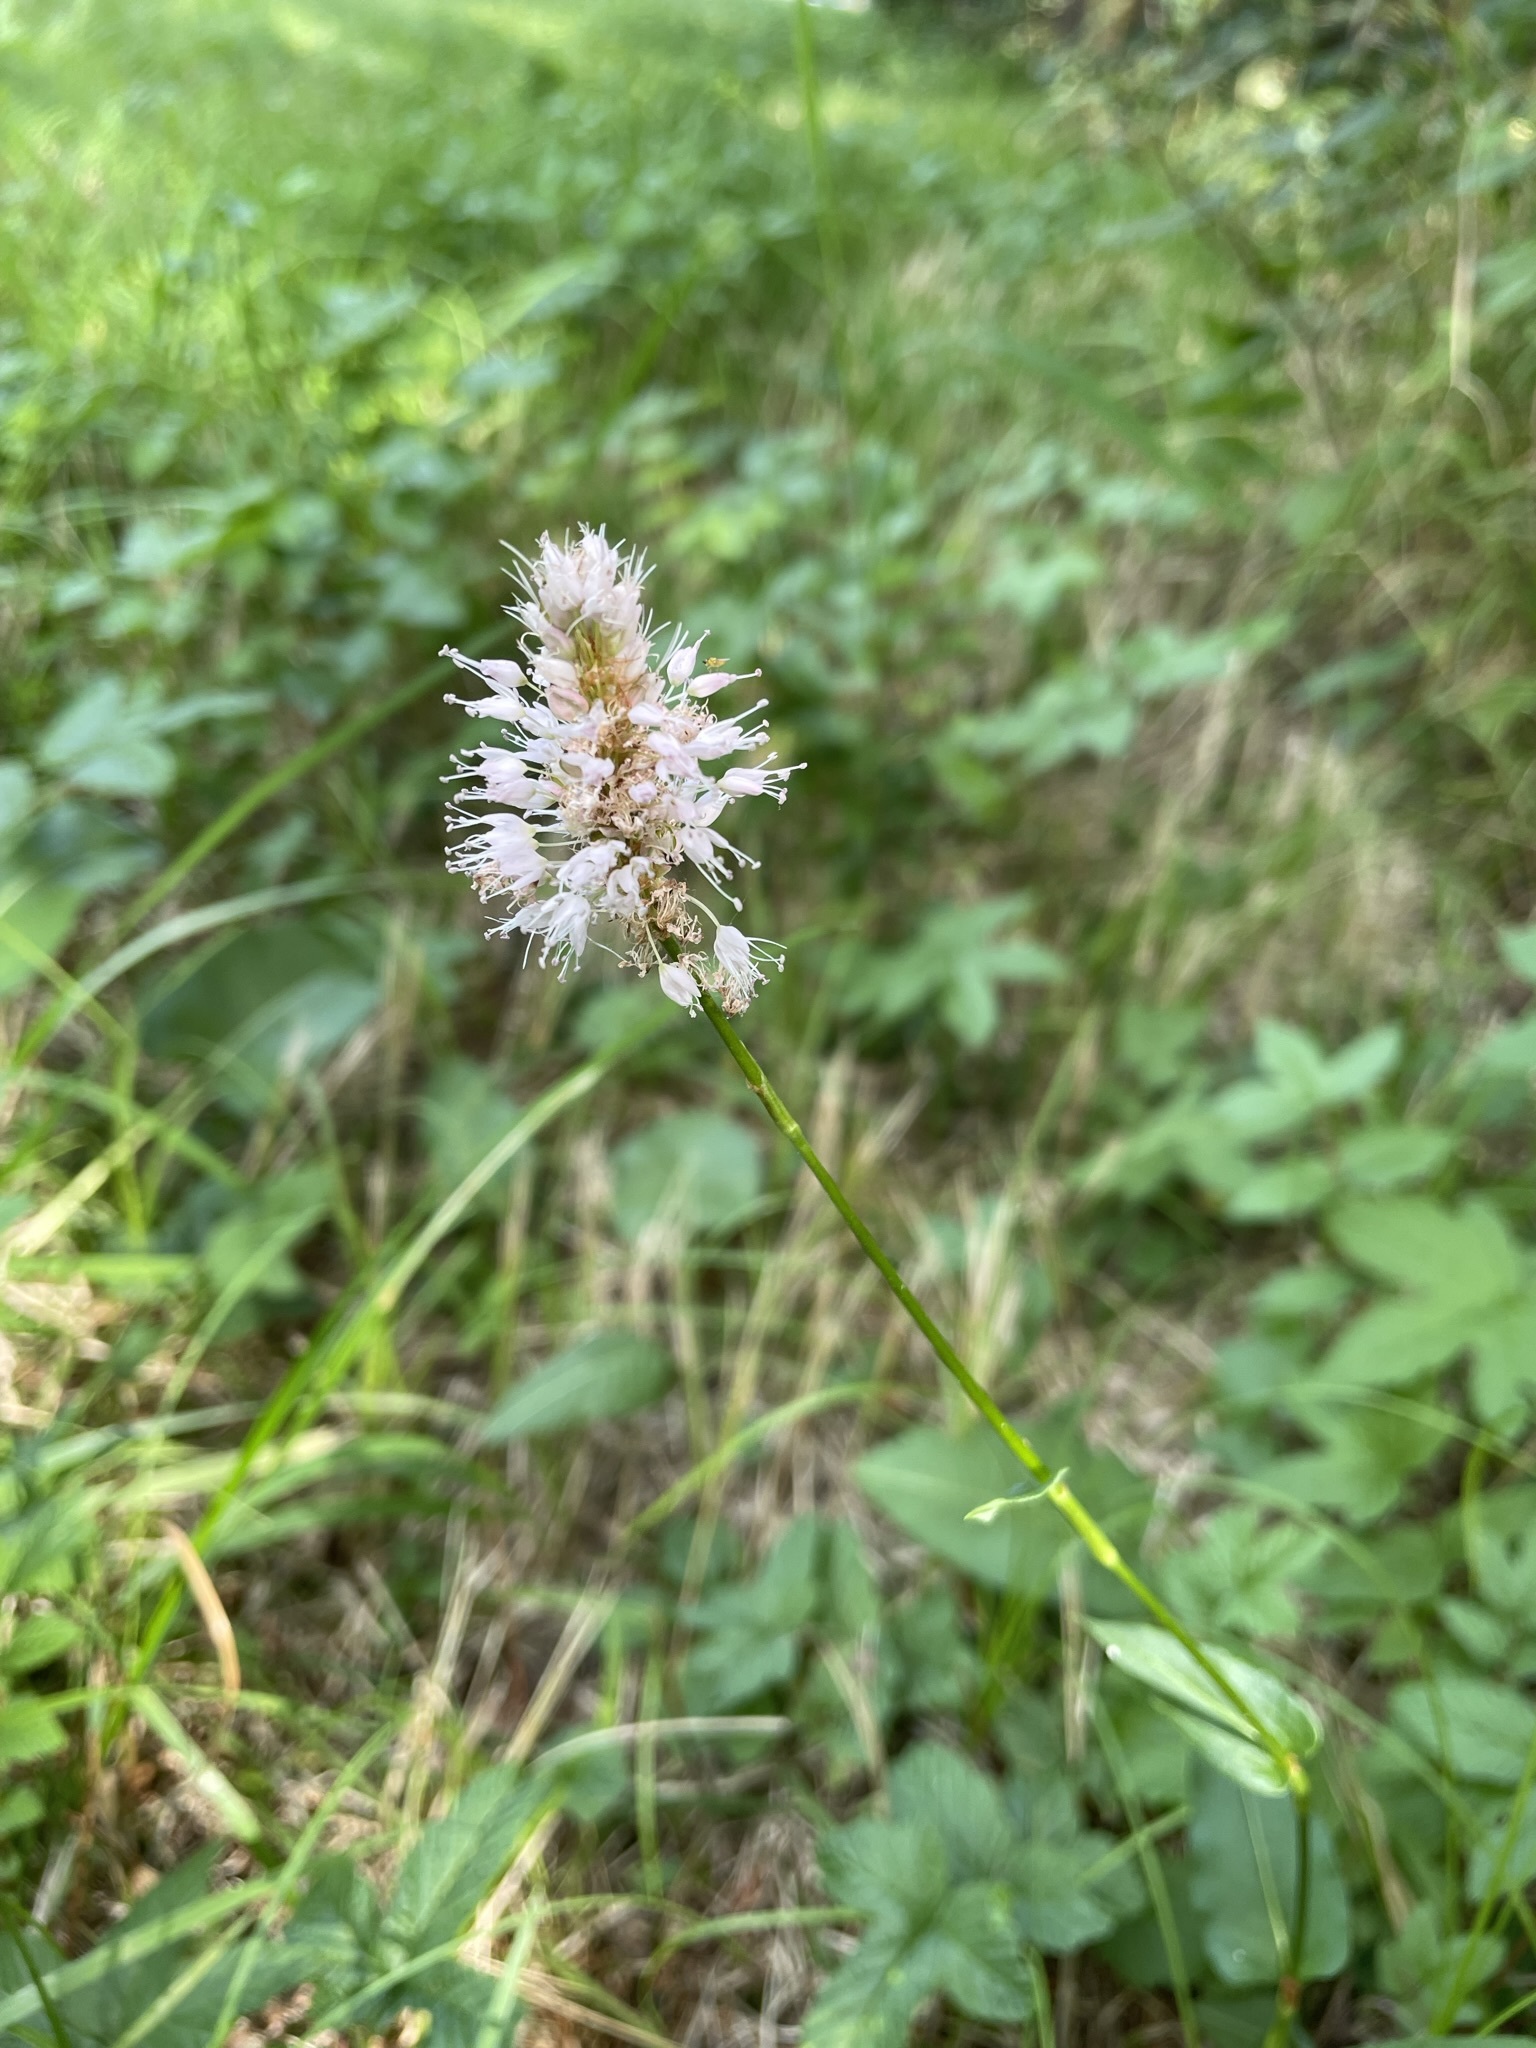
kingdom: Plantae
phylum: Tracheophyta
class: Magnoliopsida
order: Caryophyllales
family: Polygonaceae
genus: Bistorta
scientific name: Bistorta officinalis
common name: Common bistort
